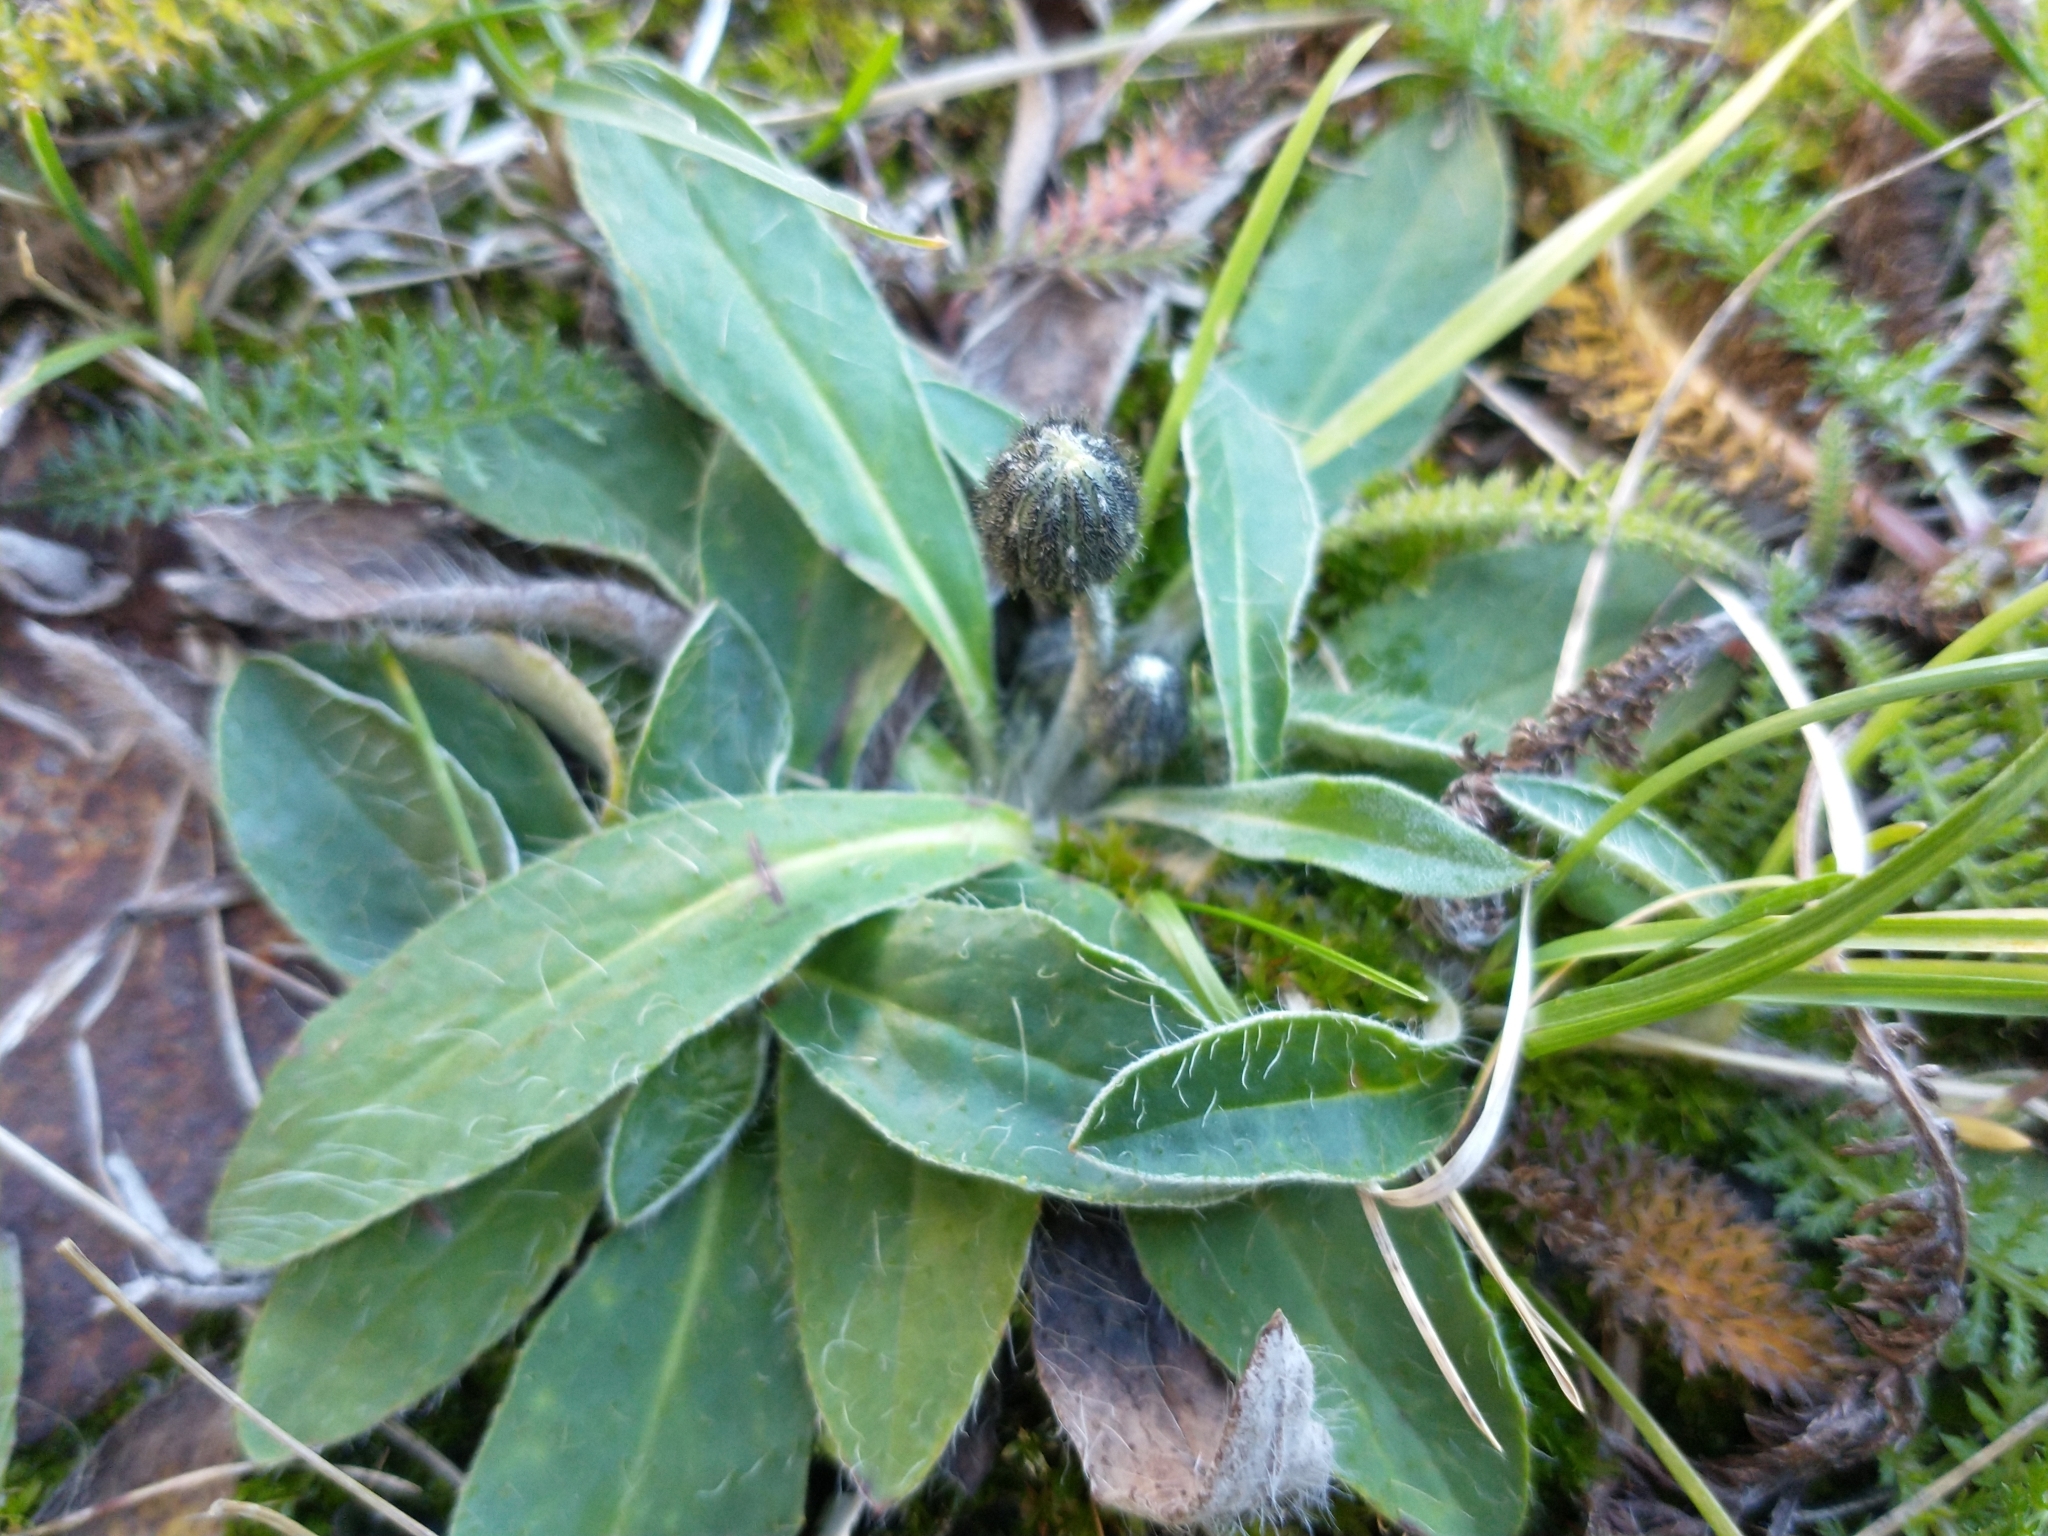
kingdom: Plantae
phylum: Tracheophyta
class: Magnoliopsida
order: Asterales
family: Asteraceae
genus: Pilosella
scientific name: Pilosella officinarum
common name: Mouse-ear hawkweed
